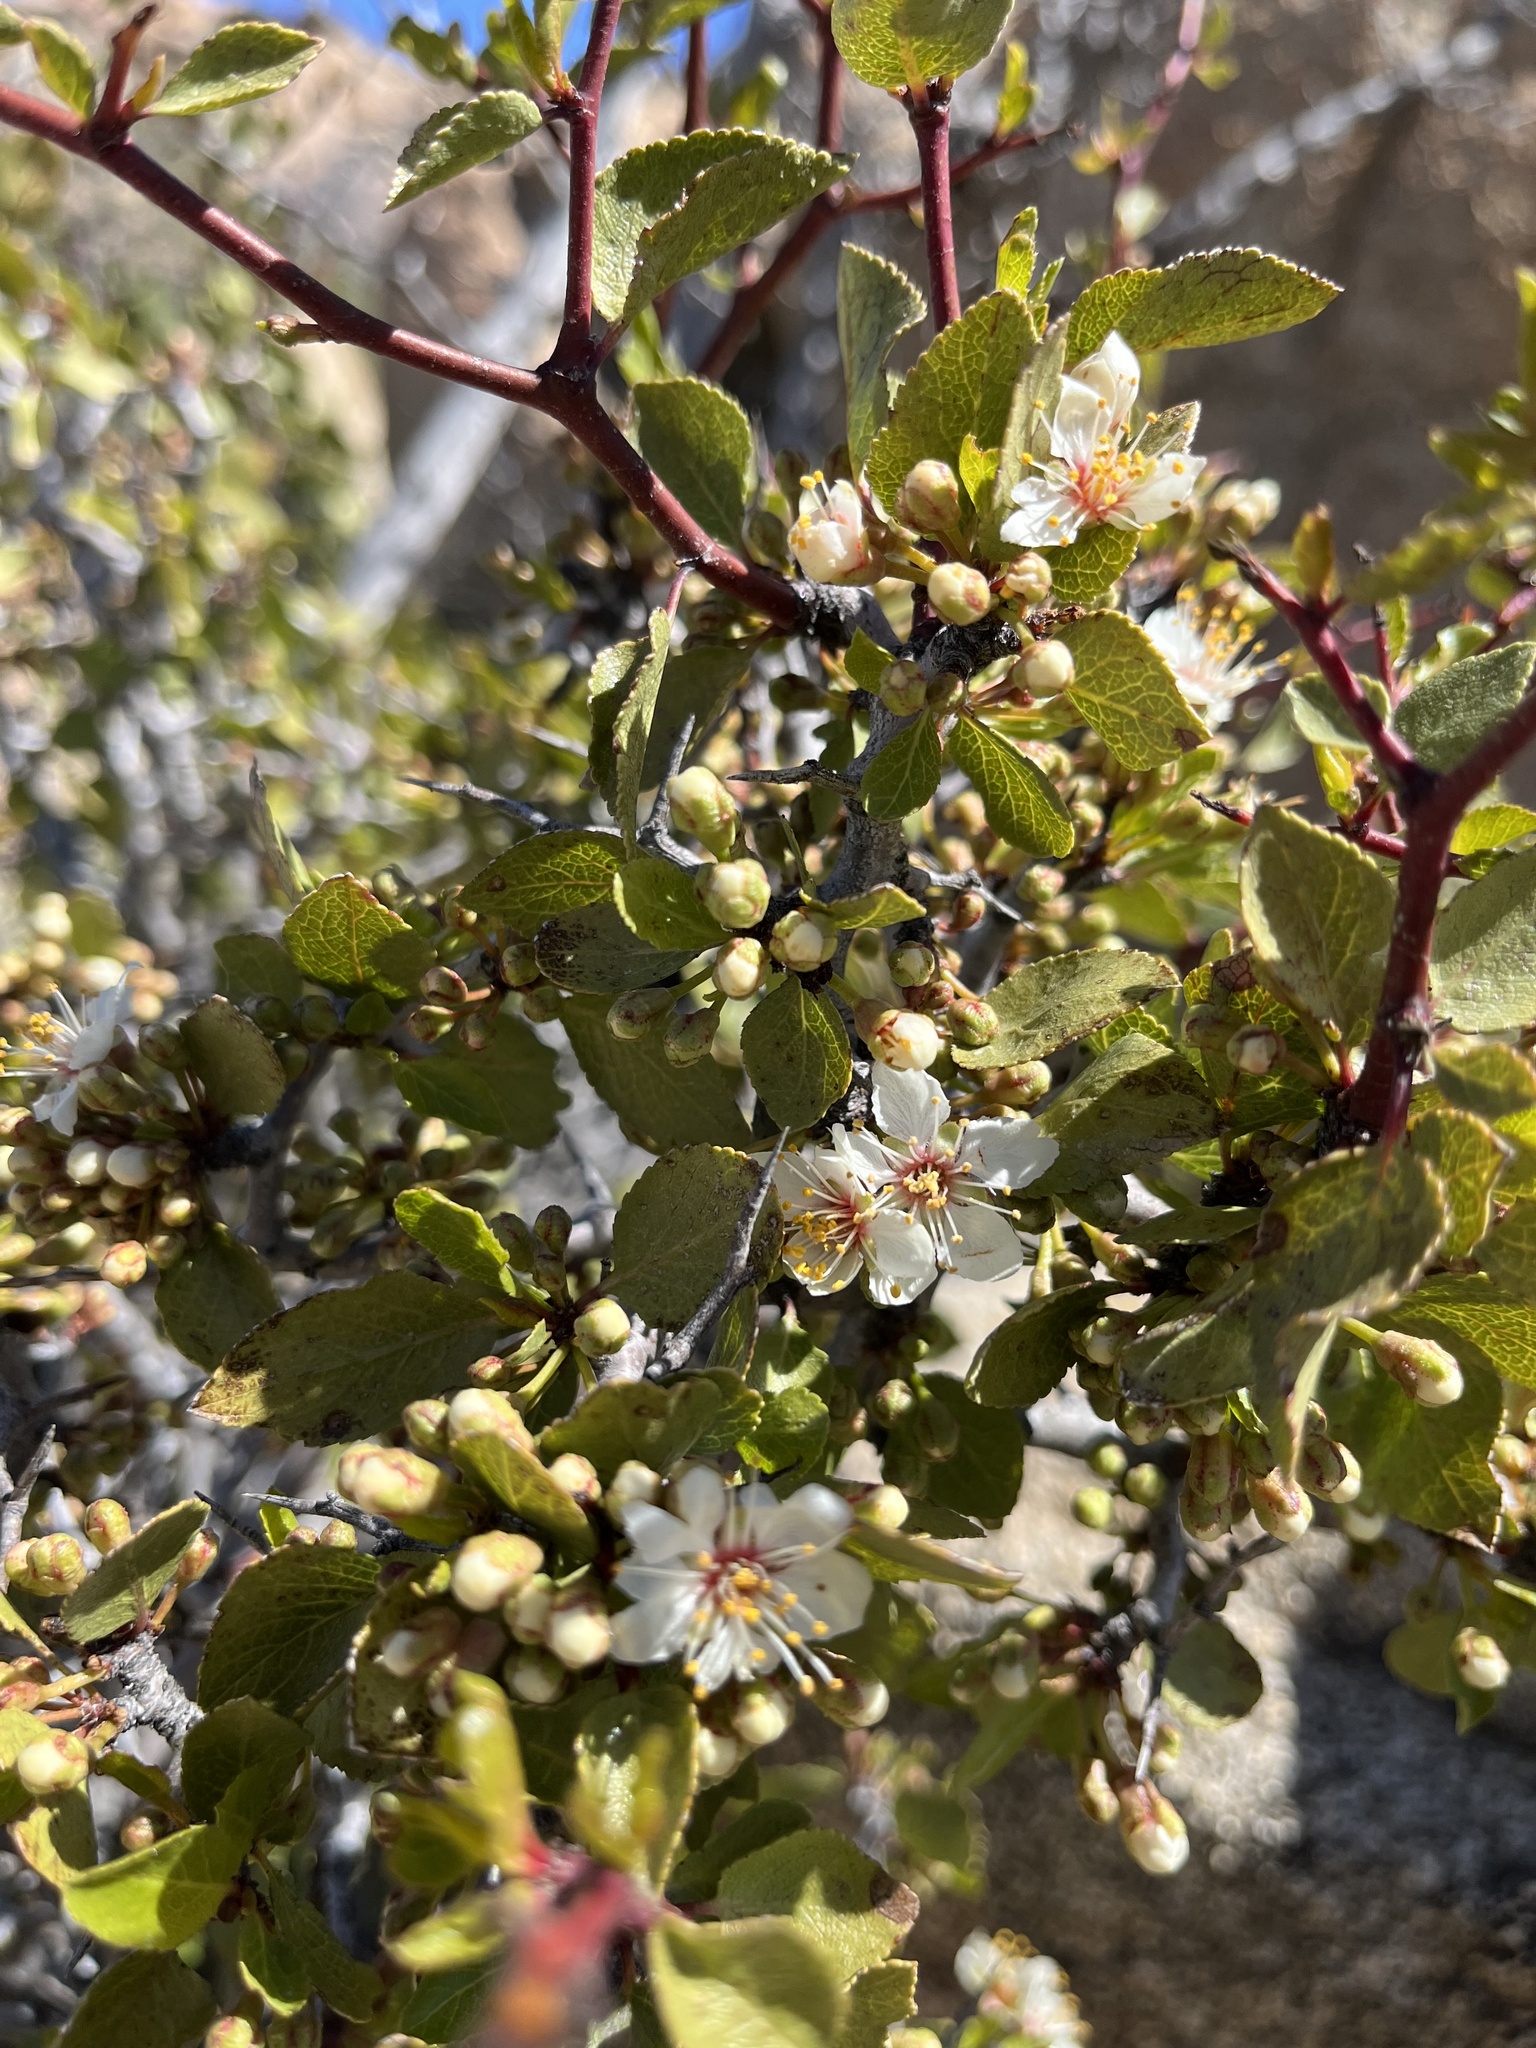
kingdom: Plantae
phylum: Tracheophyta
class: Magnoliopsida
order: Rosales
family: Rosaceae
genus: Prunus
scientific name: Prunus fremontii
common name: Desert apricot
